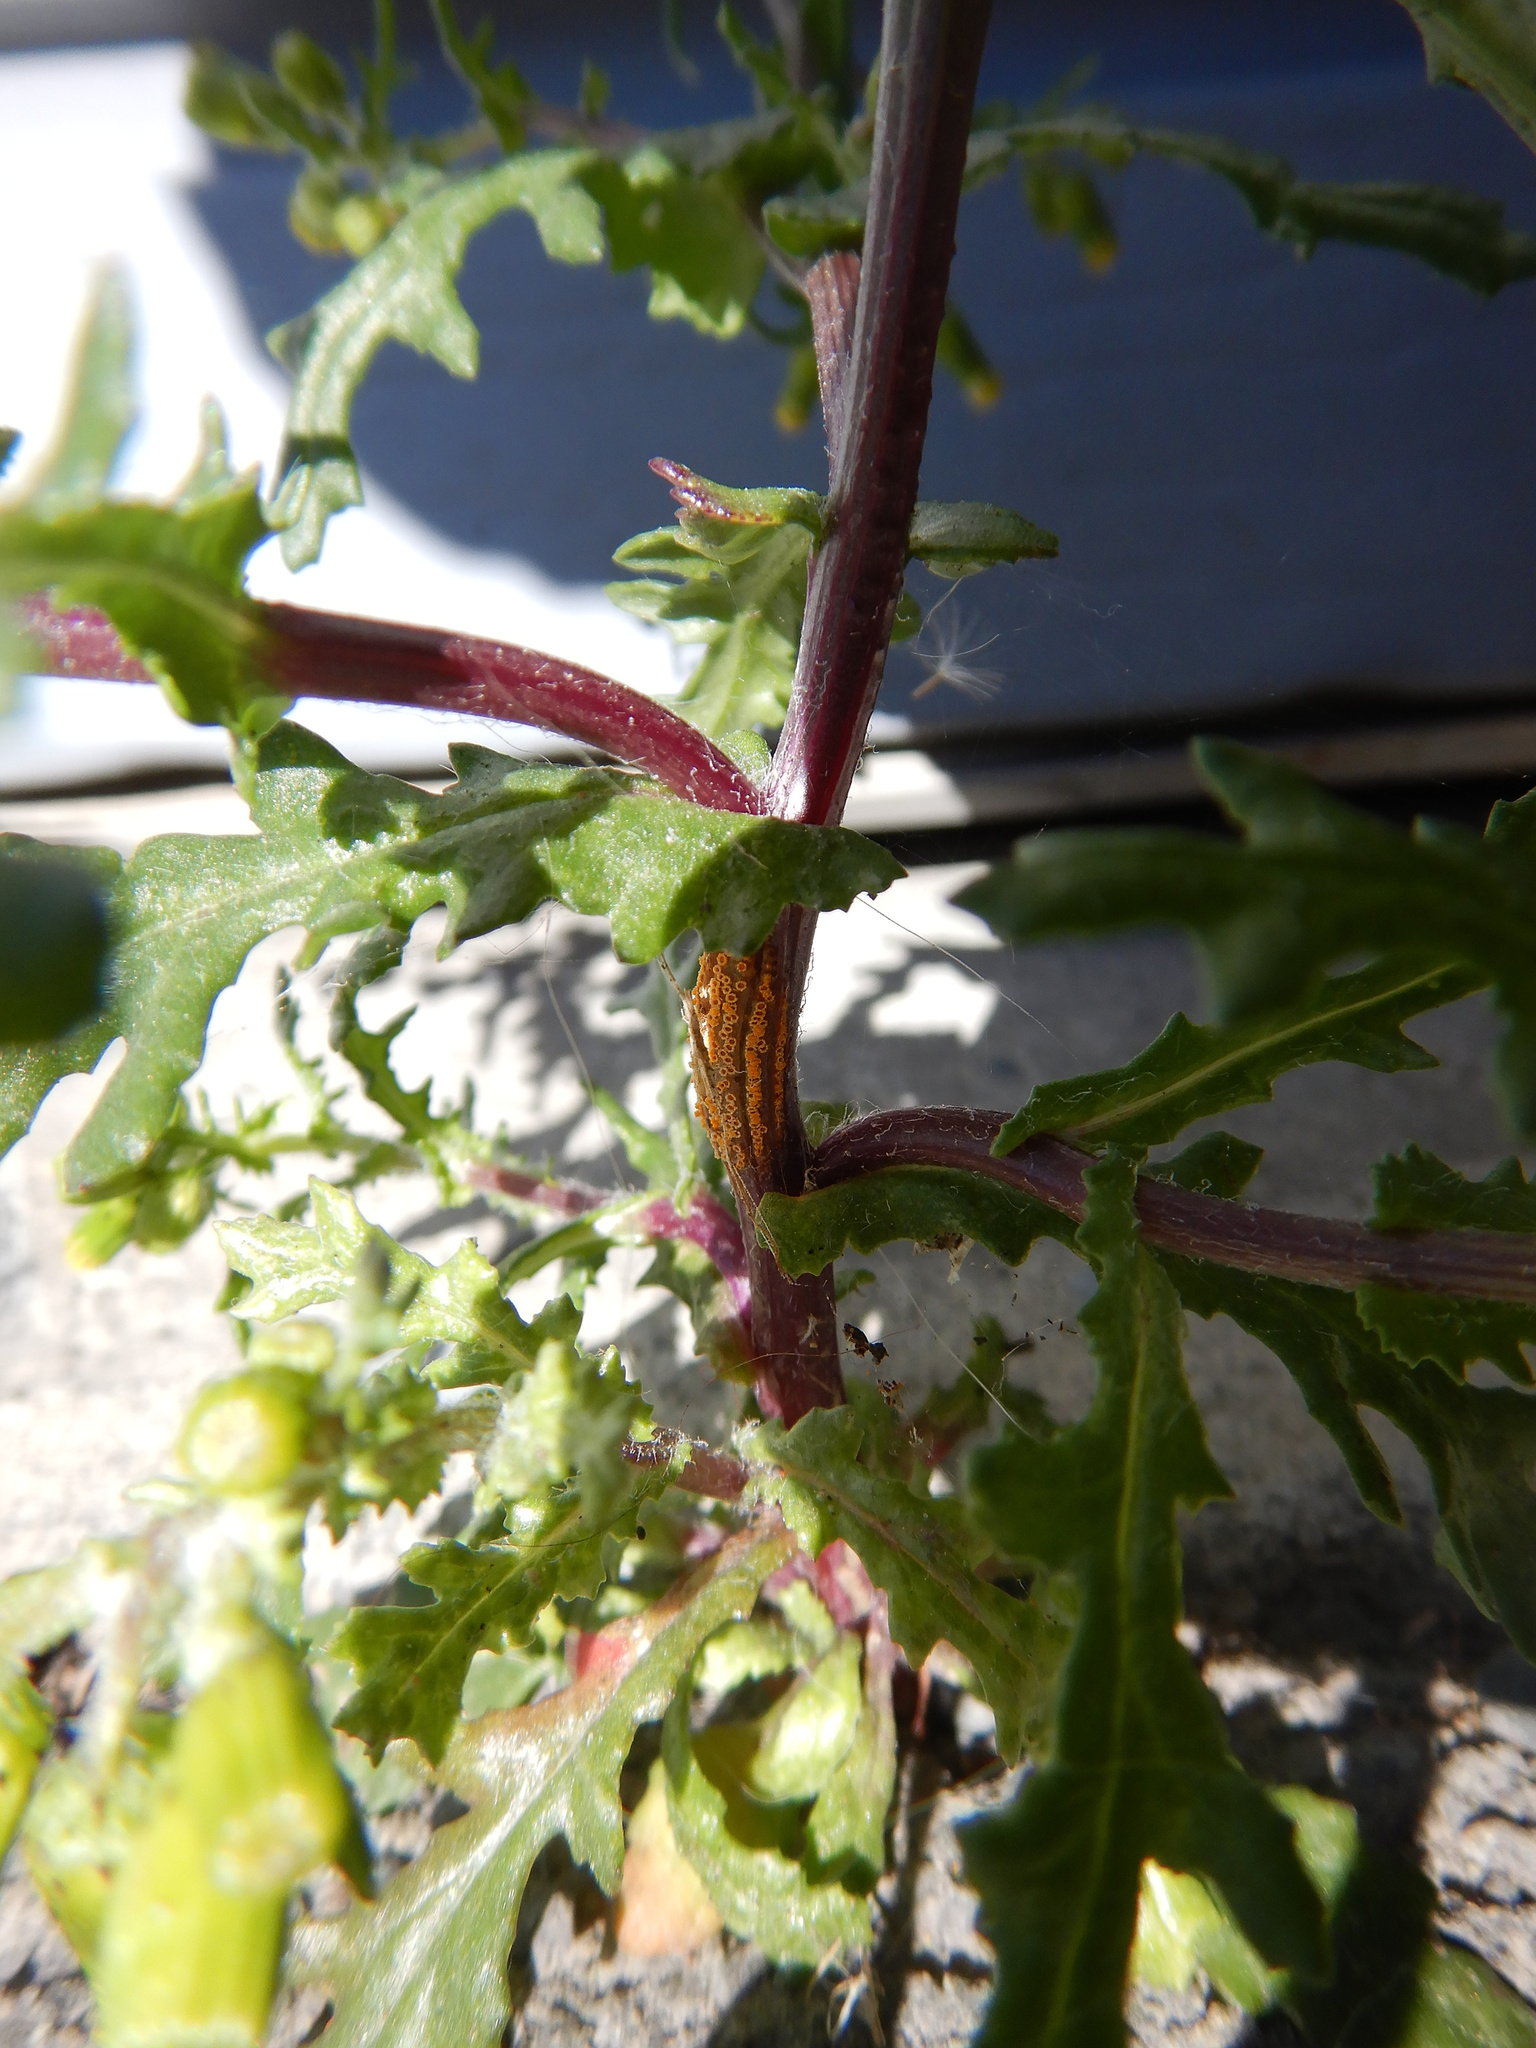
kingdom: Fungi
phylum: Basidiomycota
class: Pucciniomycetes
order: Pucciniales
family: Pucciniaceae
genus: Puccinia
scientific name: Puccinia lagenophorae
